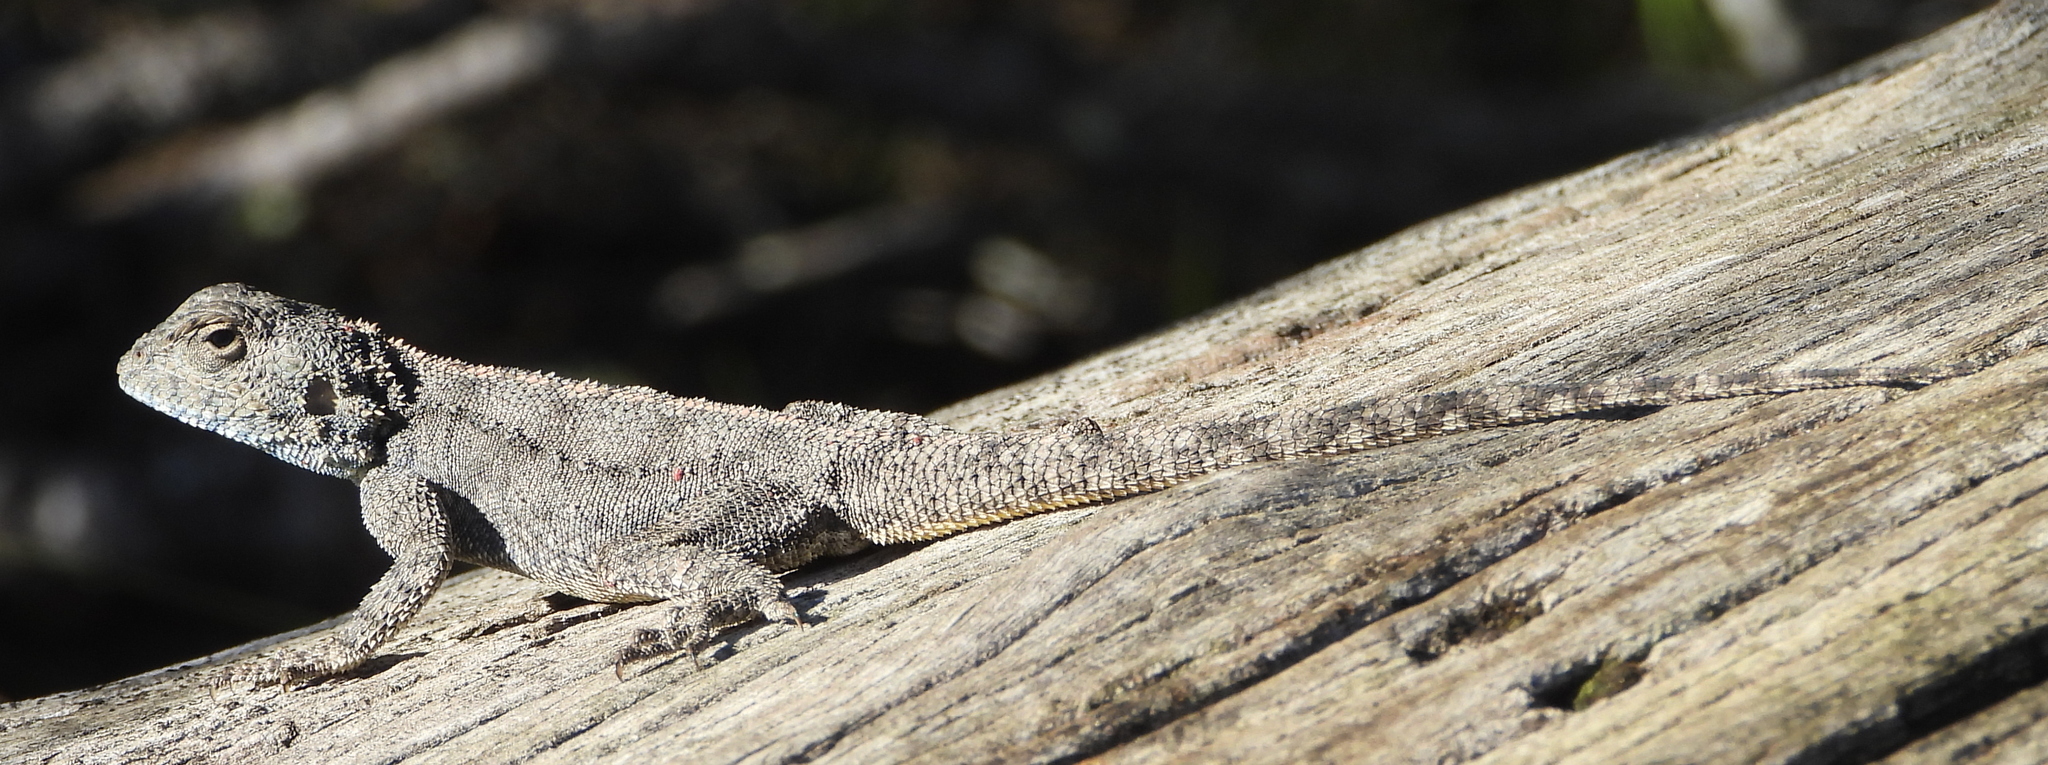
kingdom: Animalia
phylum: Chordata
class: Squamata
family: Agamidae
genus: Agama
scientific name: Agama atra
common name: Southern african rock agama
